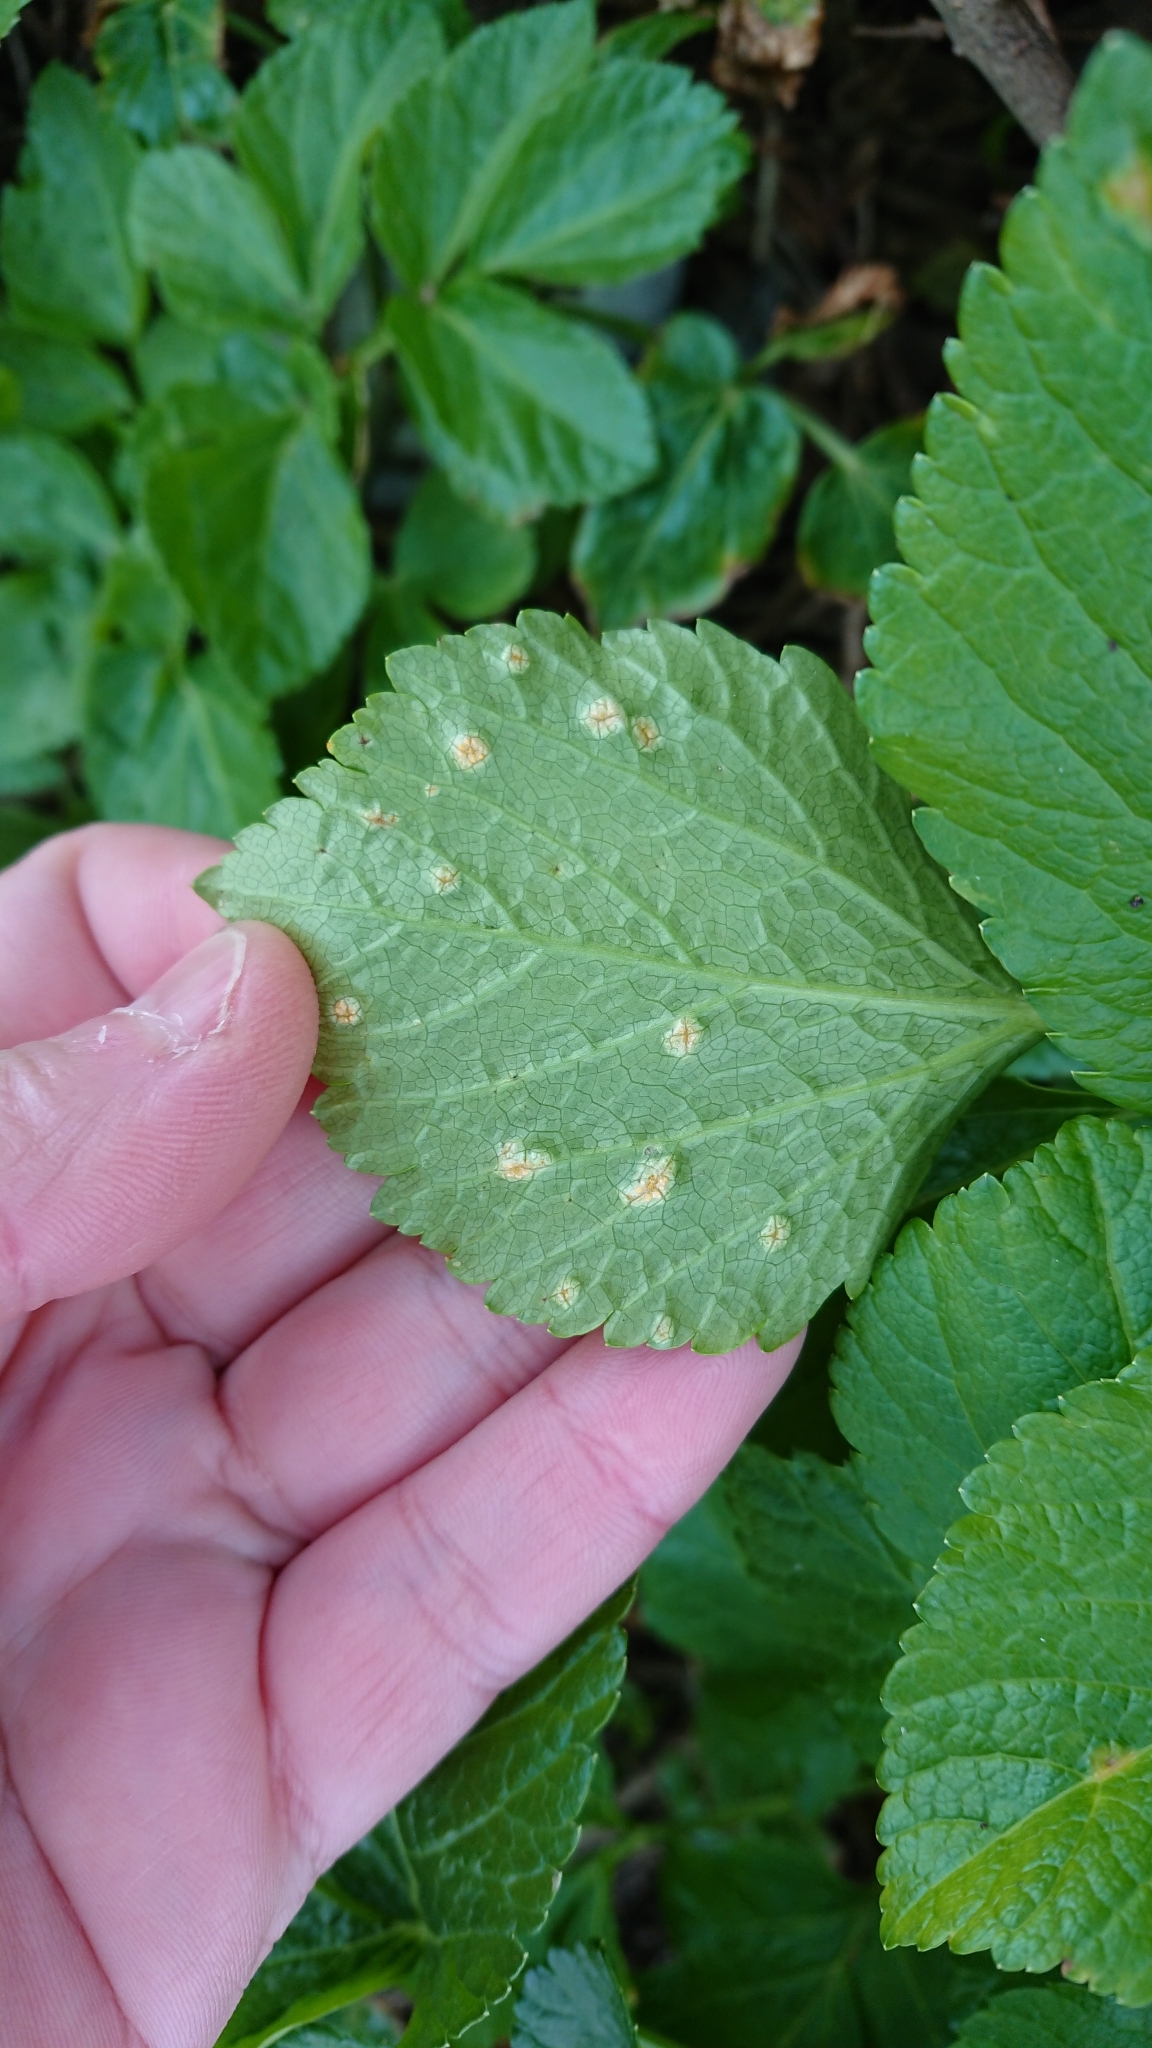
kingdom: Fungi
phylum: Basidiomycota
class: Pucciniomycetes
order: Pucciniales
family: Pucciniaceae
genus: Puccinia
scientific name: Puccinia smyrnii
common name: Alexanders rust
